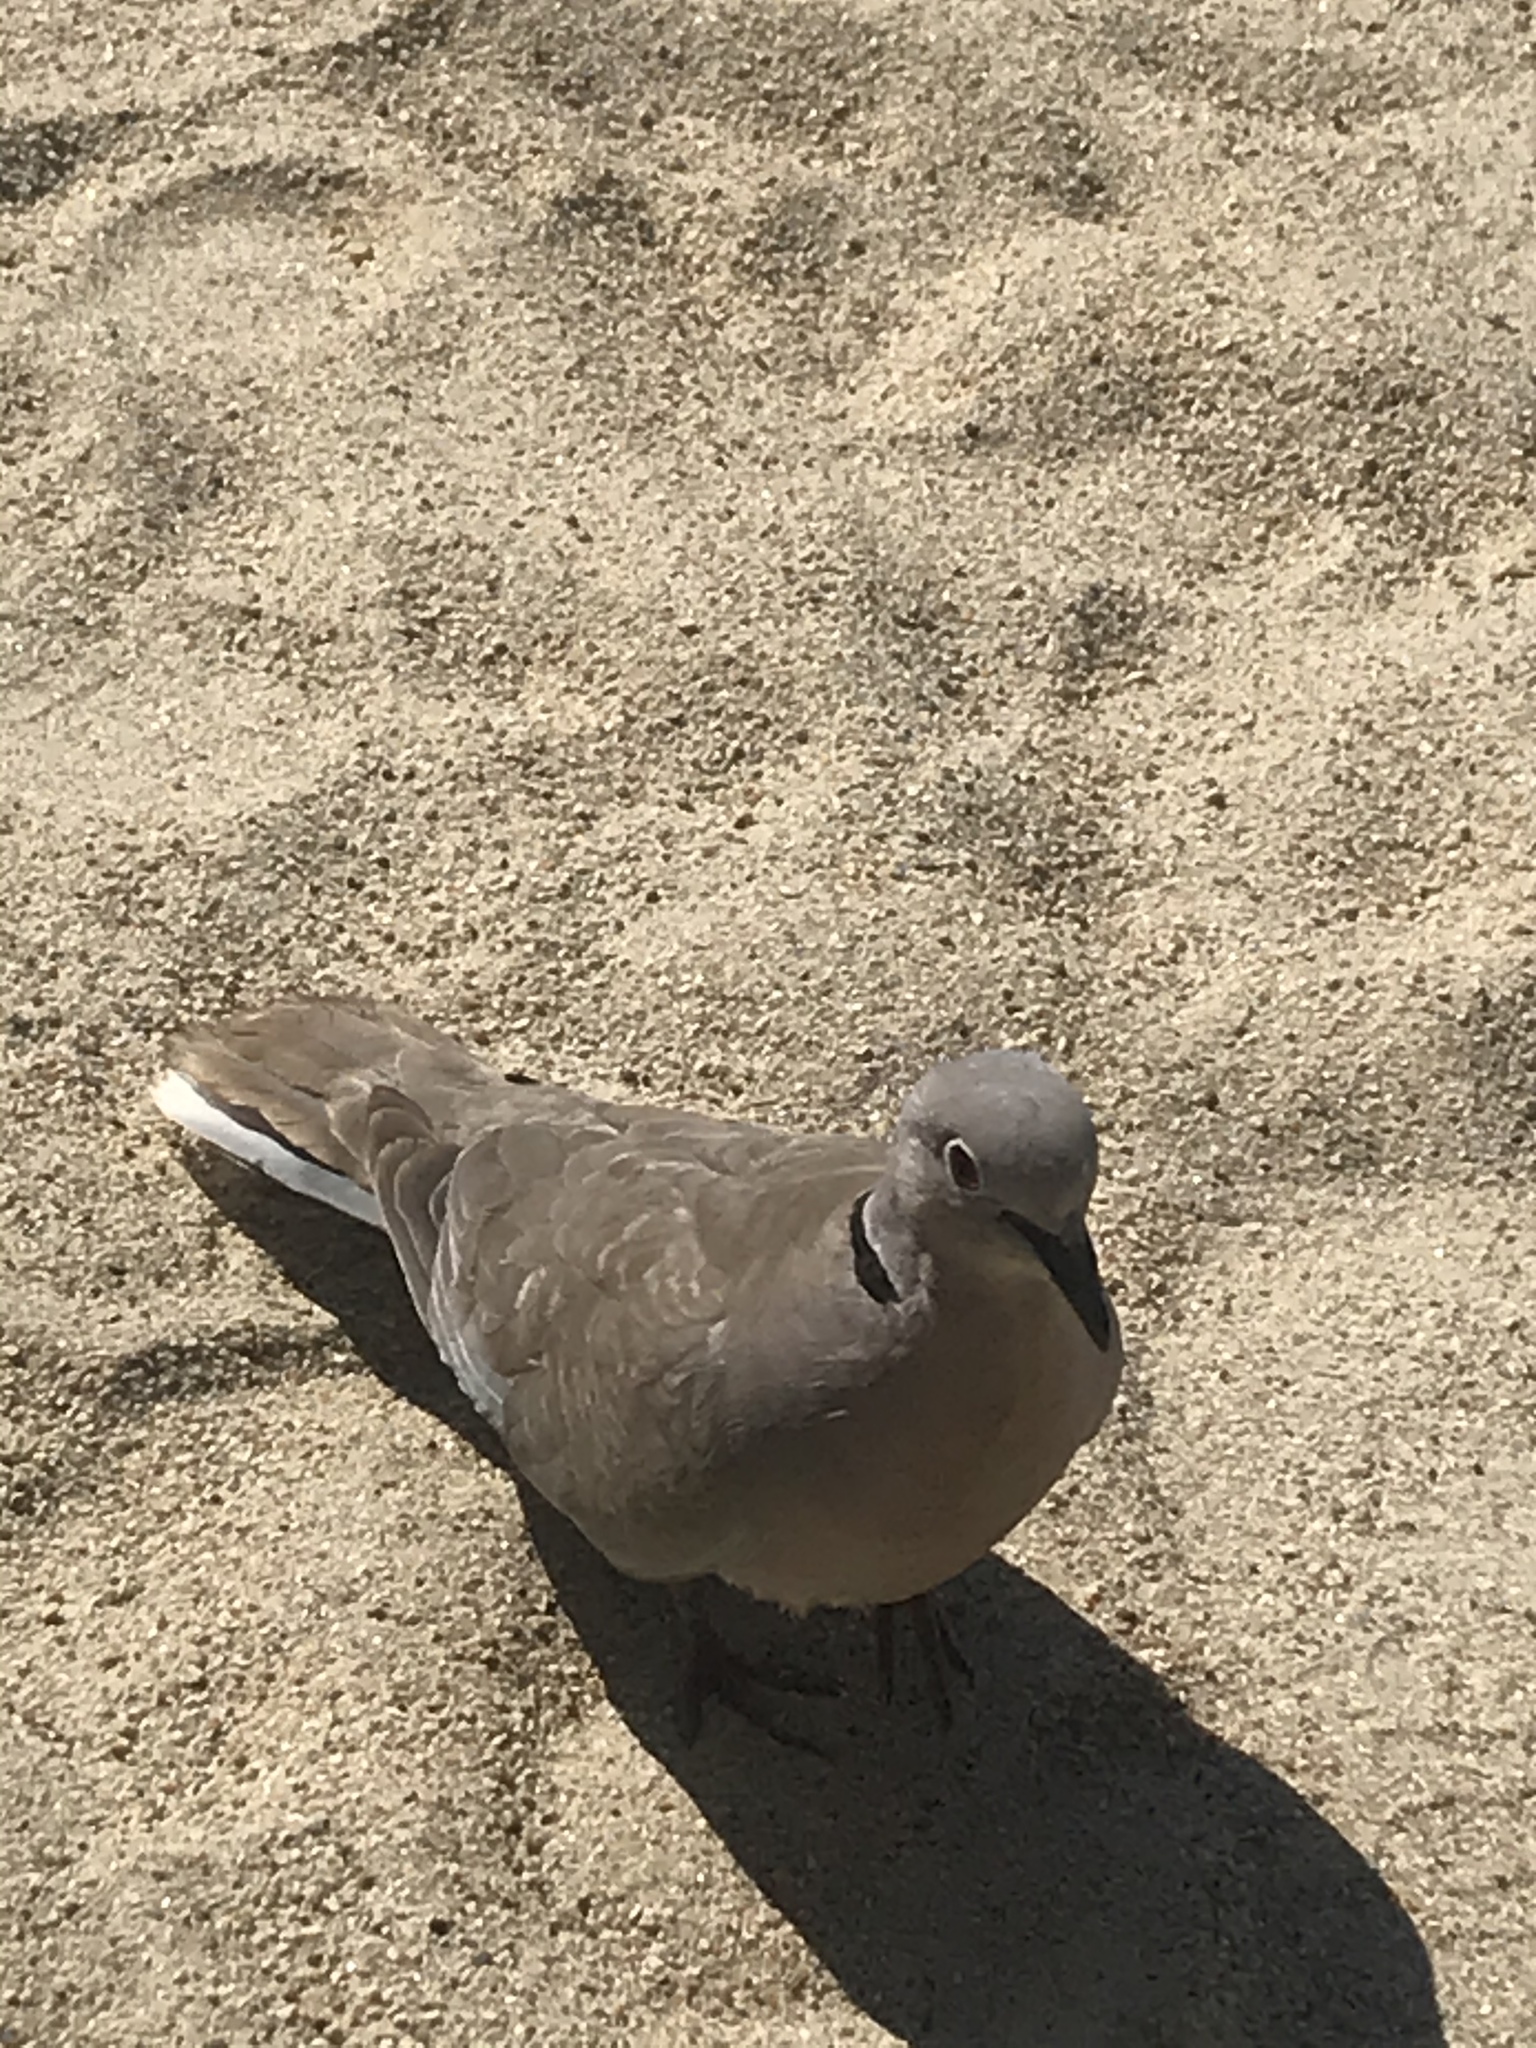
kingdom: Animalia
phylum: Chordata
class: Aves
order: Columbiformes
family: Columbidae
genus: Streptopelia
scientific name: Streptopelia decaocto
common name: Eurasian collared dove
